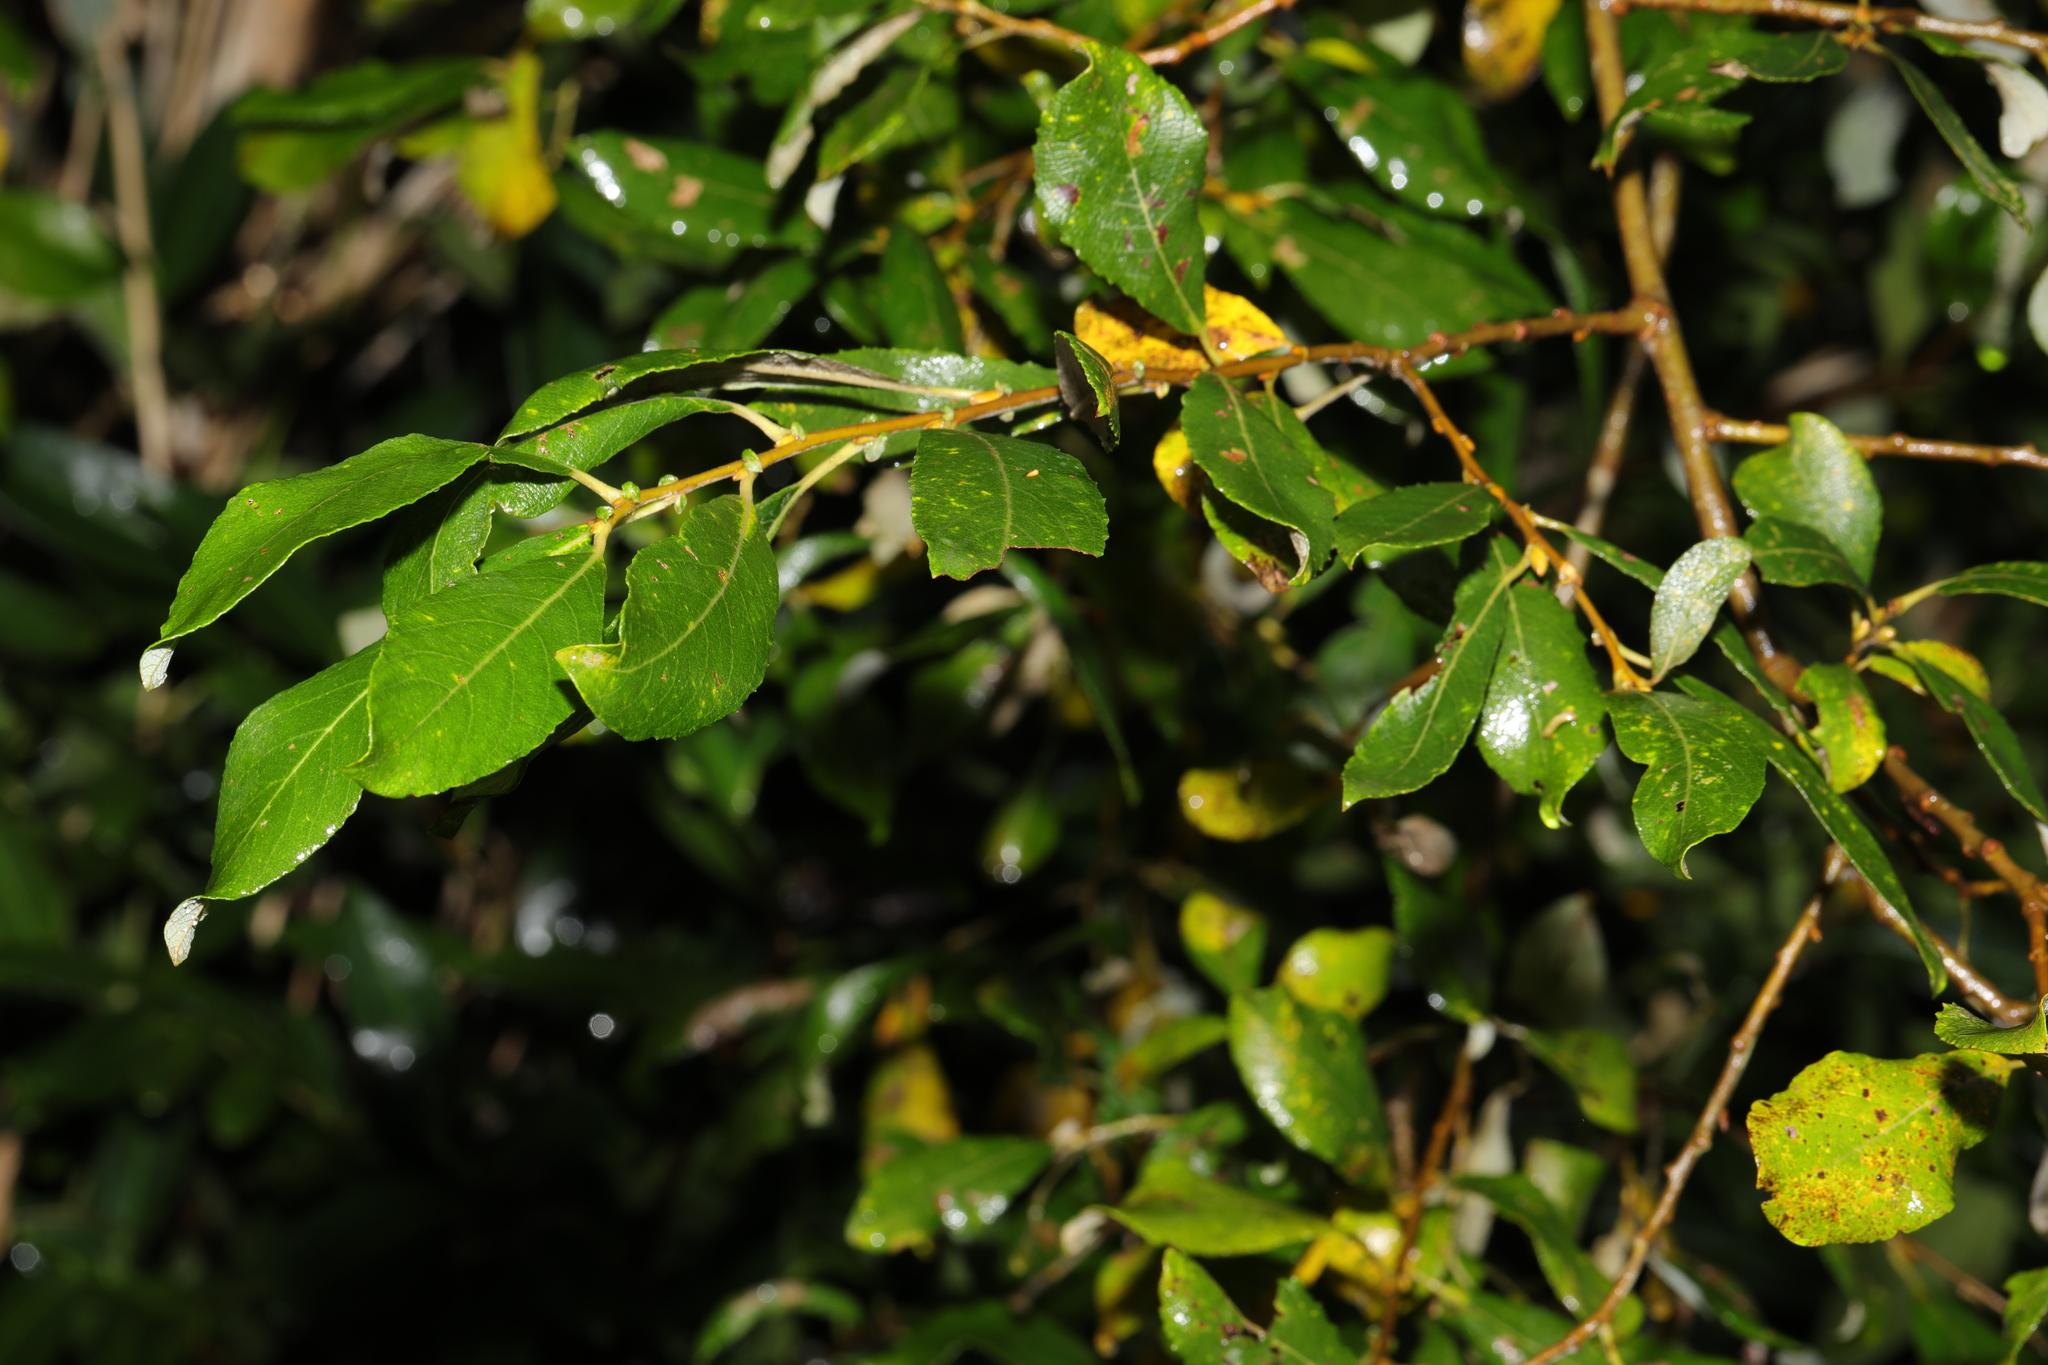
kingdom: Plantae
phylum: Tracheophyta
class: Magnoliopsida
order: Malpighiales
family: Salicaceae
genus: Salix
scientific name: Salix atrocinerea
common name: Rusty willow
